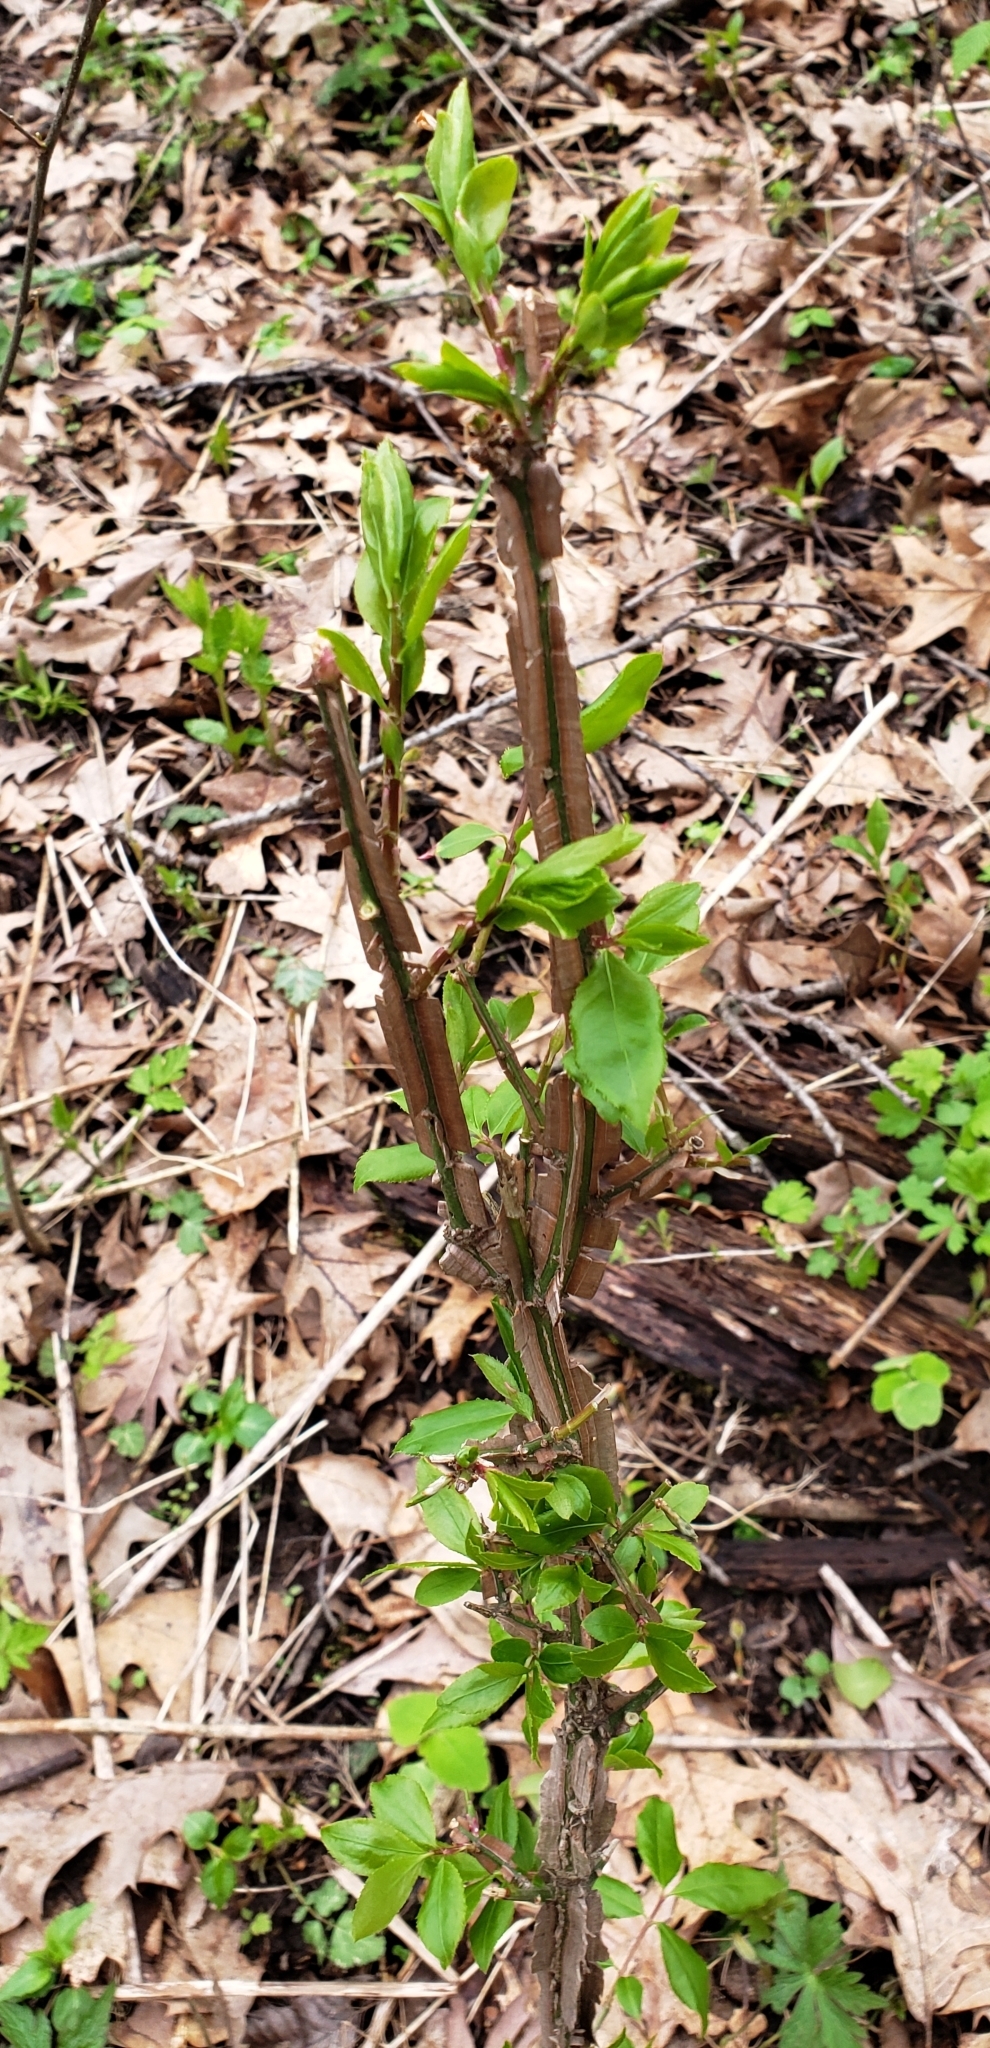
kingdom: Plantae
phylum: Tracheophyta
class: Magnoliopsida
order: Celastrales
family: Celastraceae
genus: Euonymus
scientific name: Euonymus alatus
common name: Winged euonymus
